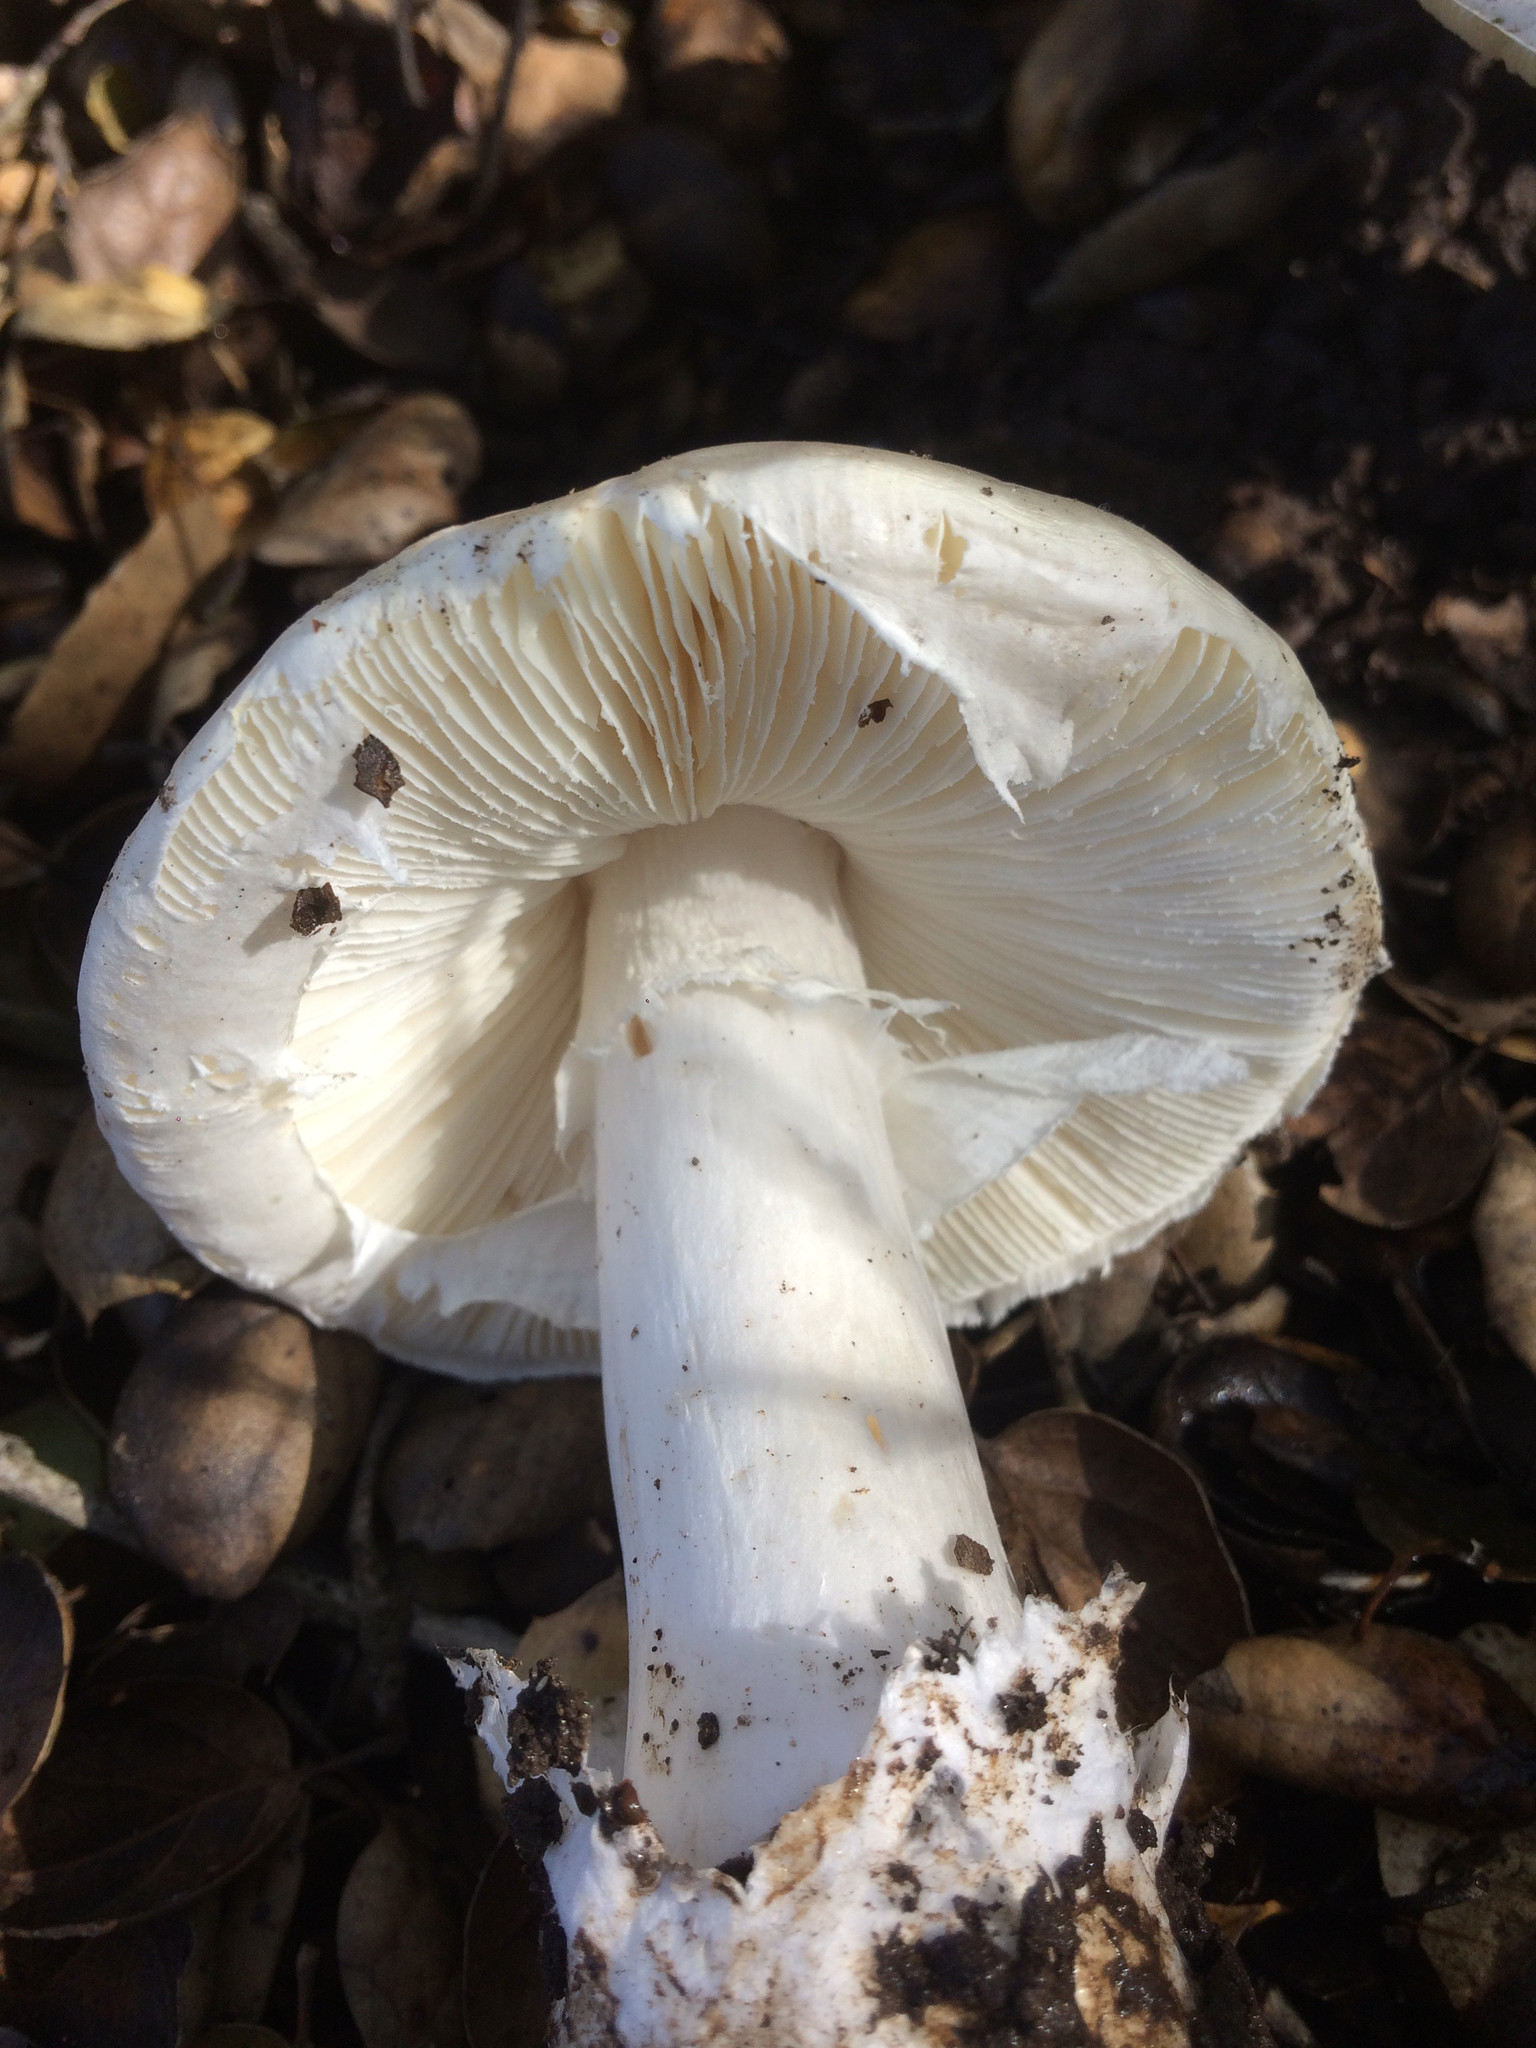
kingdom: Fungi
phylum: Basidiomycota
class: Agaricomycetes
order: Agaricales
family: Amanitaceae
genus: Amanita
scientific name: Amanita ocreata
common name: Western destroying angel
